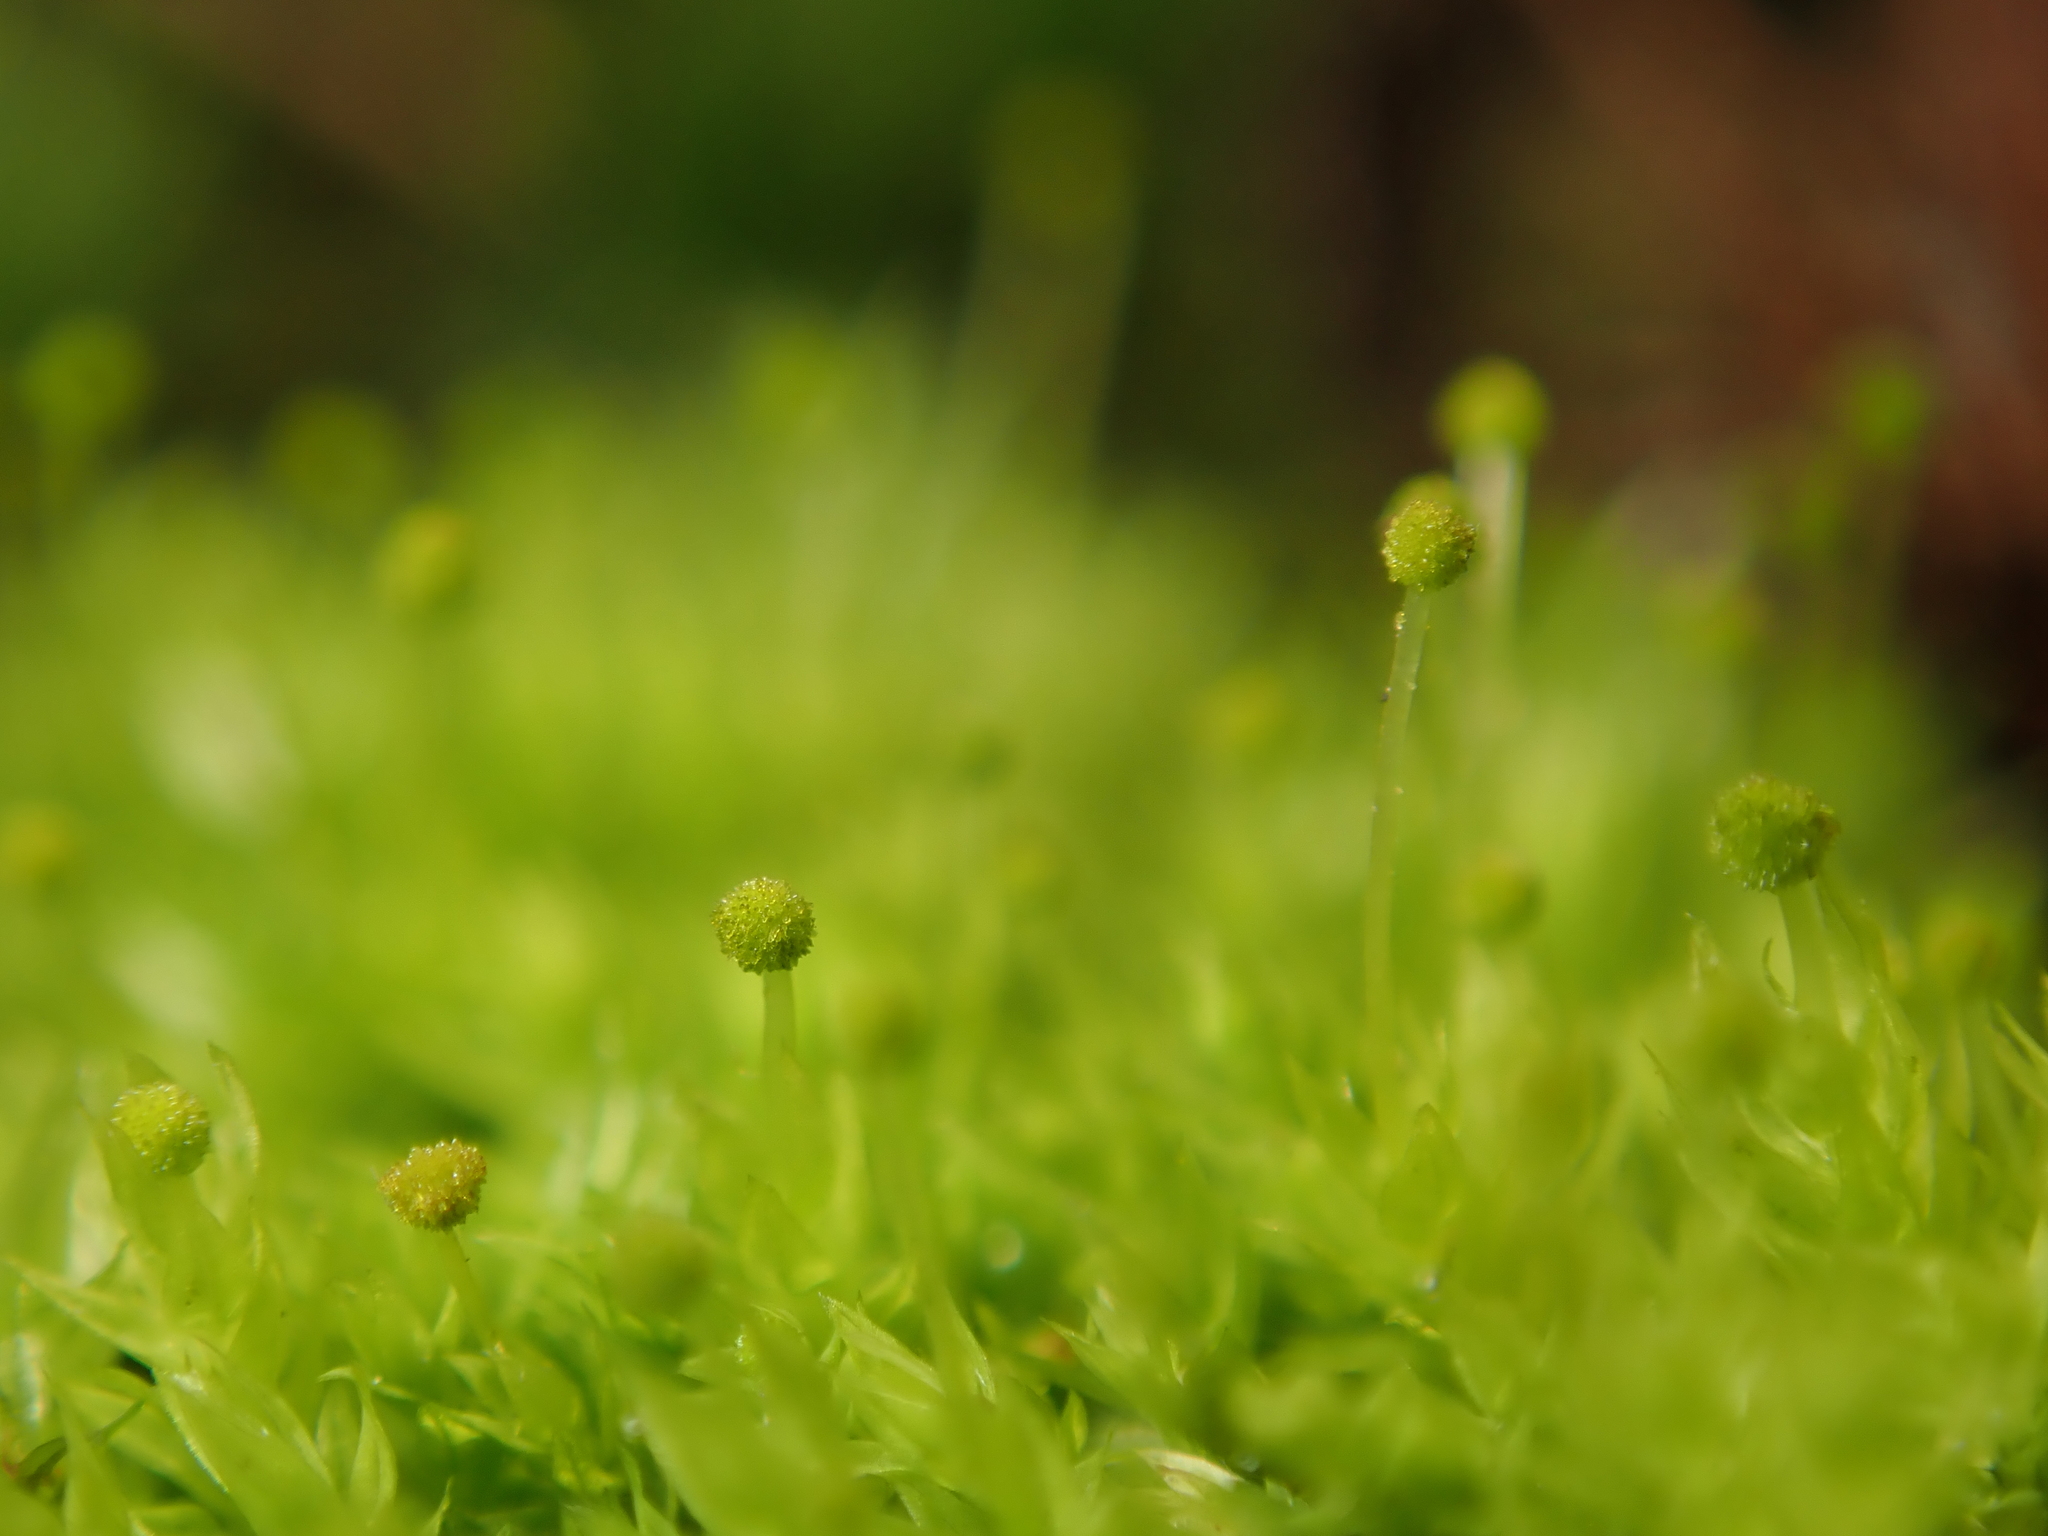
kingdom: Plantae
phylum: Bryophyta
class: Bryopsida
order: Aulacomniales
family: Aulacomniaceae
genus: Aulacomnium
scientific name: Aulacomnium androgynum
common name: Little groove moss
